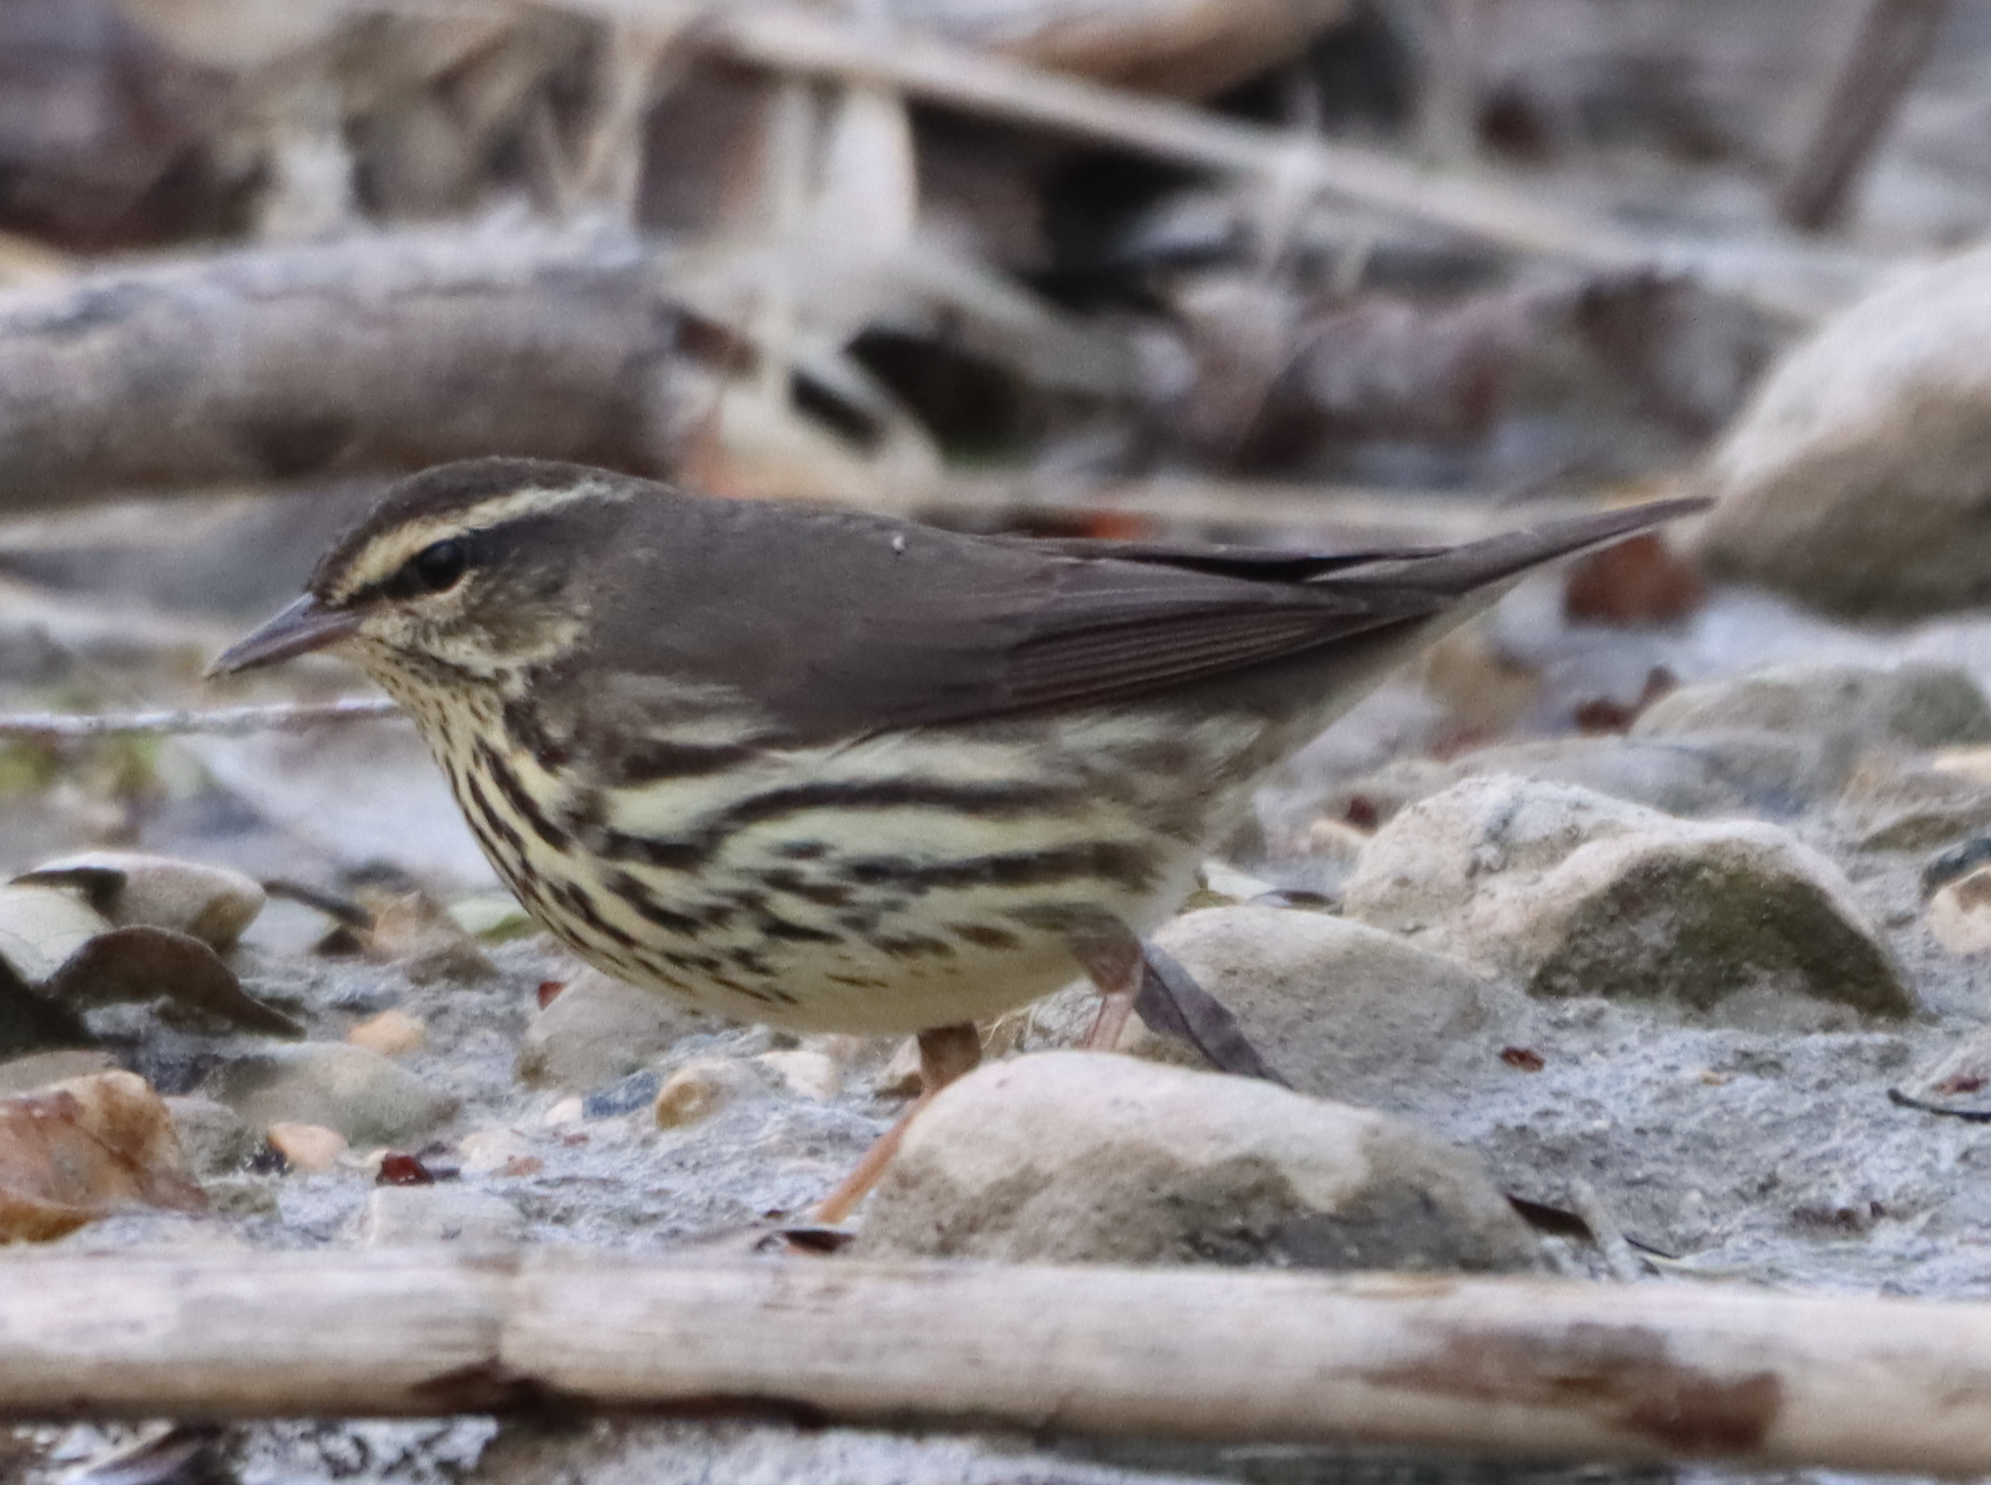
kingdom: Animalia
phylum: Chordata
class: Aves
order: Passeriformes
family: Parulidae
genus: Parkesia
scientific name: Parkesia noveboracensis
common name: Northern waterthrush
